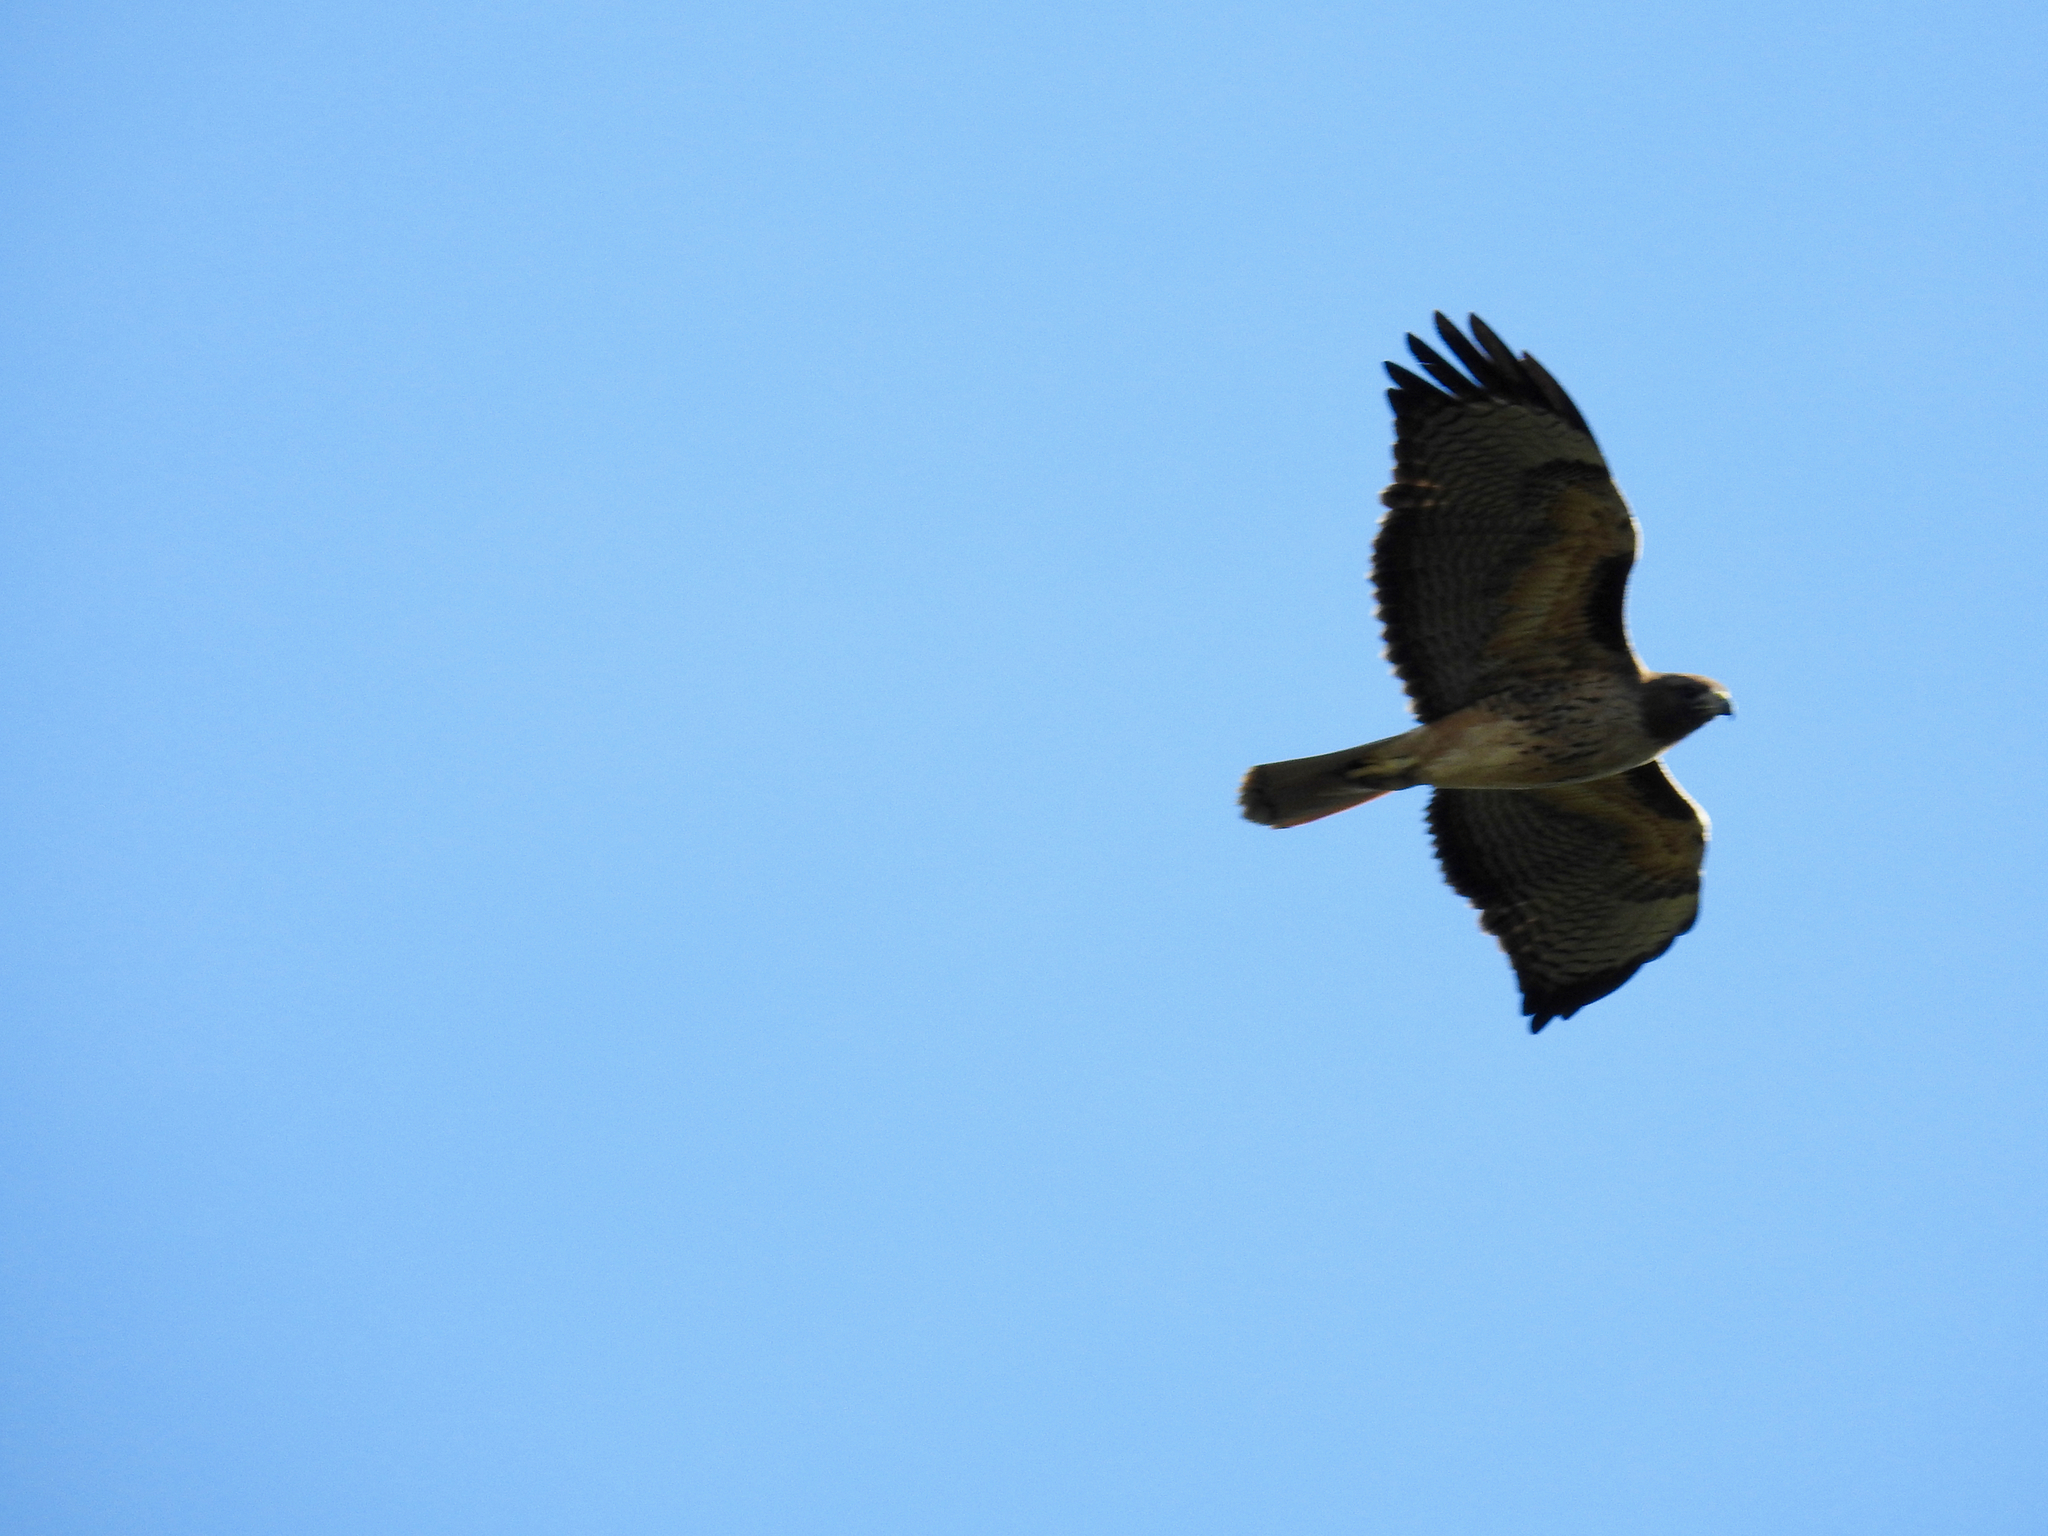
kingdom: Animalia
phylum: Chordata
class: Aves
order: Accipitriformes
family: Accipitridae
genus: Buteo
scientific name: Buteo jamaicensis
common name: Red-tailed hawk
